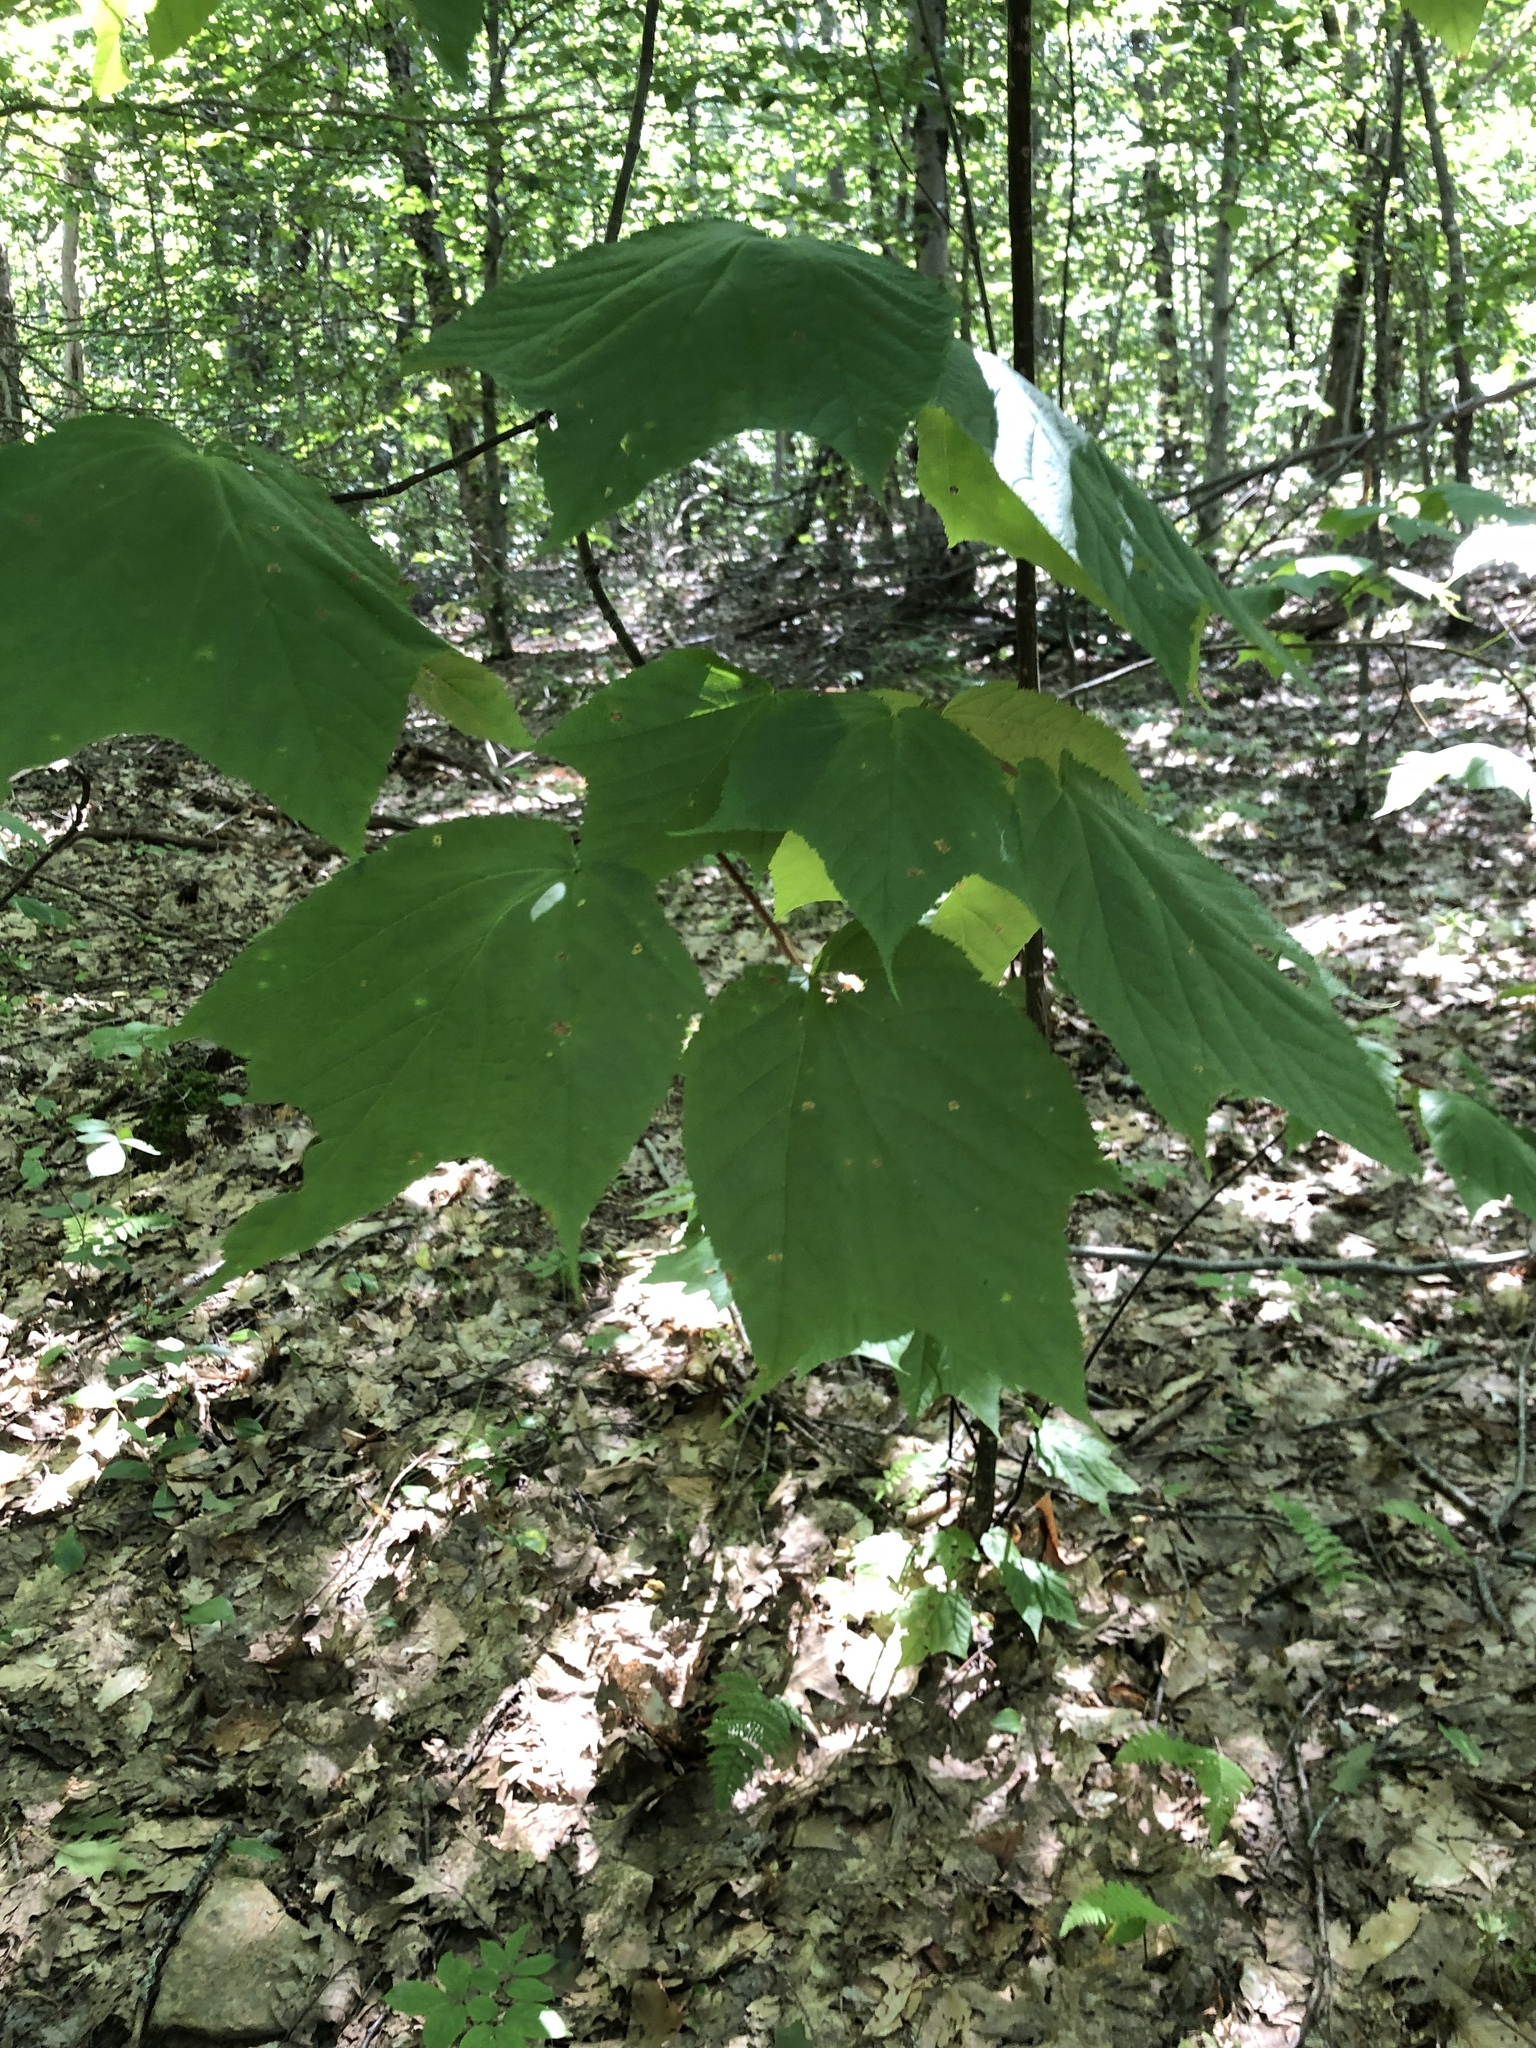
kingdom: Plantae
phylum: Tracheophyta
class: Magnoliopsida
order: Sapindales
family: Sapindaceae
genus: Acer
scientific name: Acer pensylvanicum
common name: Moosewood
